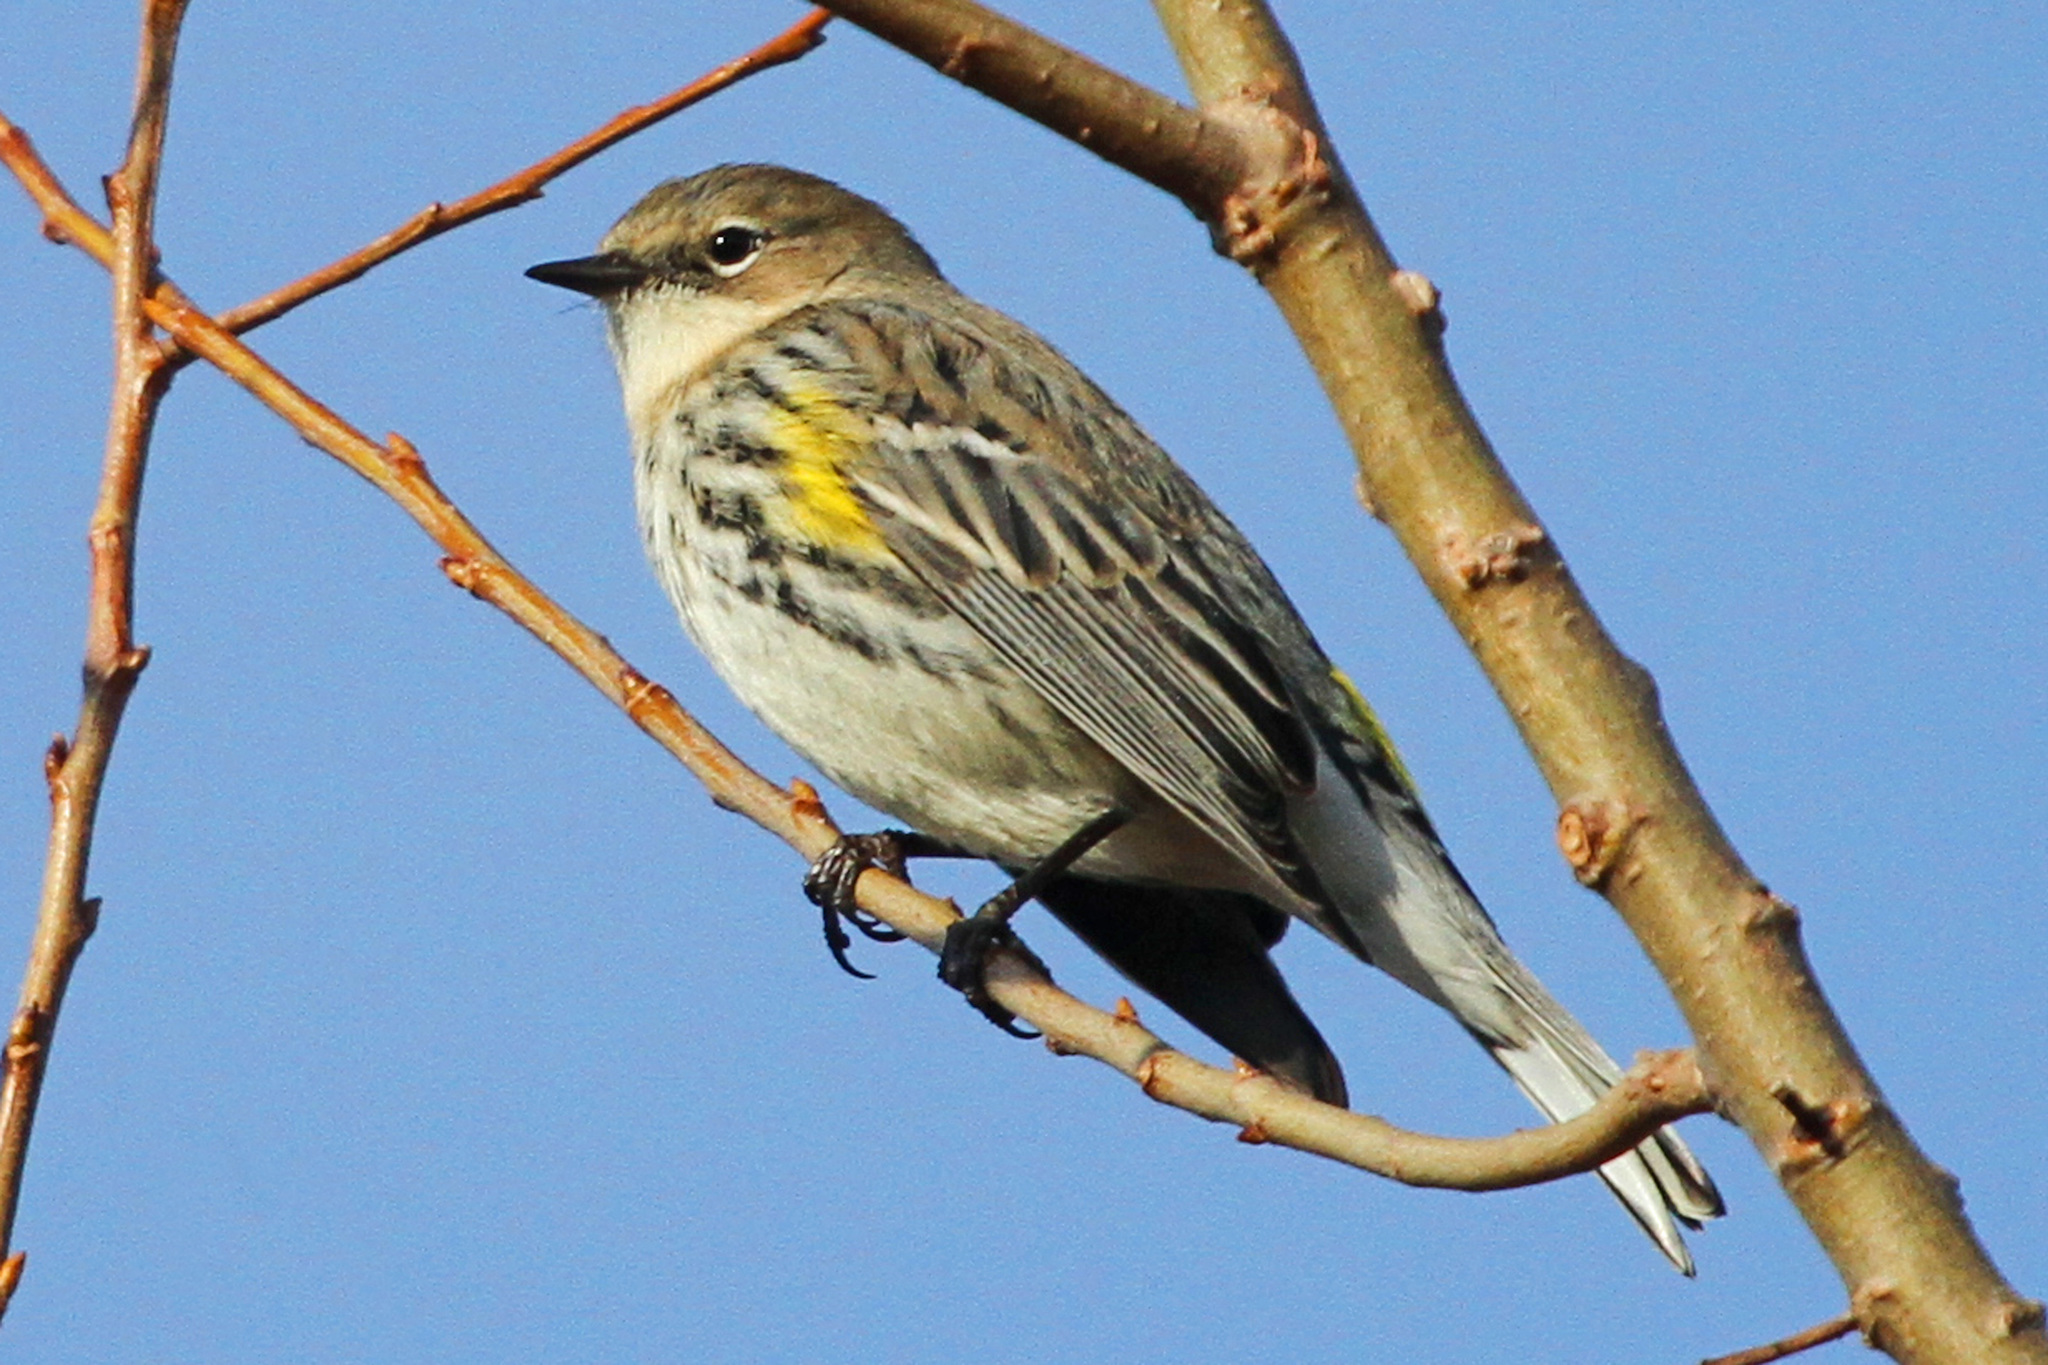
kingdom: Animalia
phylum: Chordata
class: Aves
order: Passeriformes
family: Parulidae
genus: Setophaga
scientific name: Setophaga coronata
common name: Myrtle warbler
